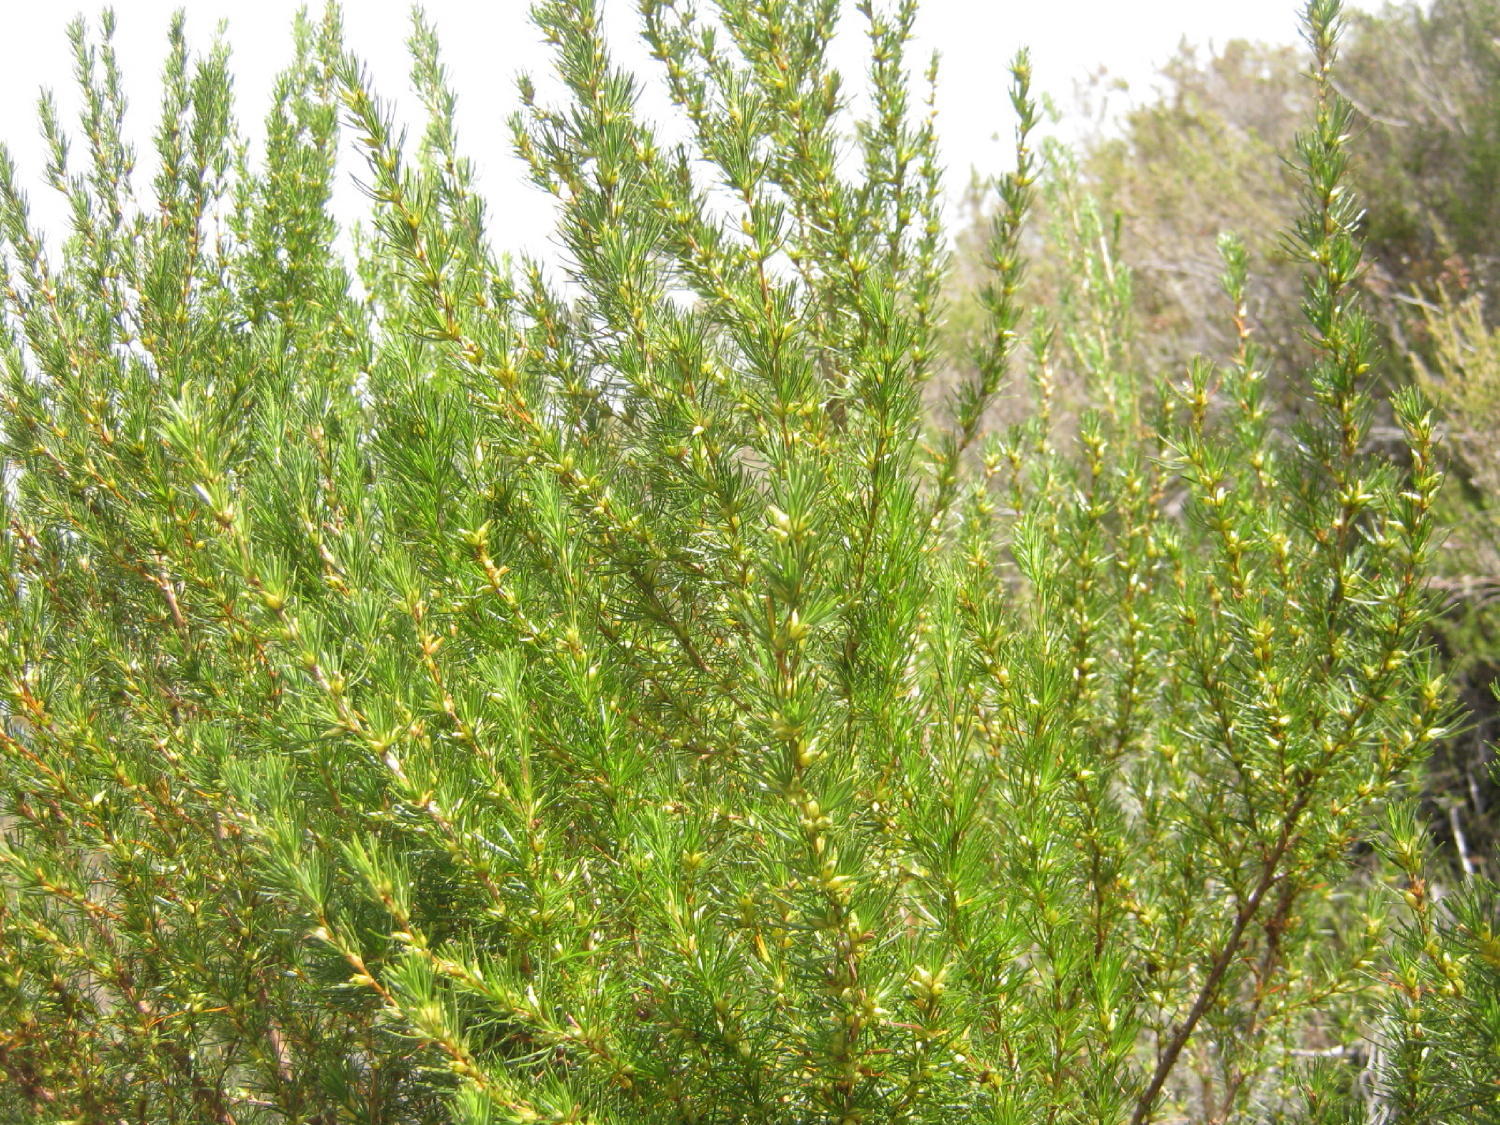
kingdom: Plantae
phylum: Tracheophyta
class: Magnoliopsida
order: Rosales
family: Rosaceae
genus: Cliffortia
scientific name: Cliffortia burchellii
